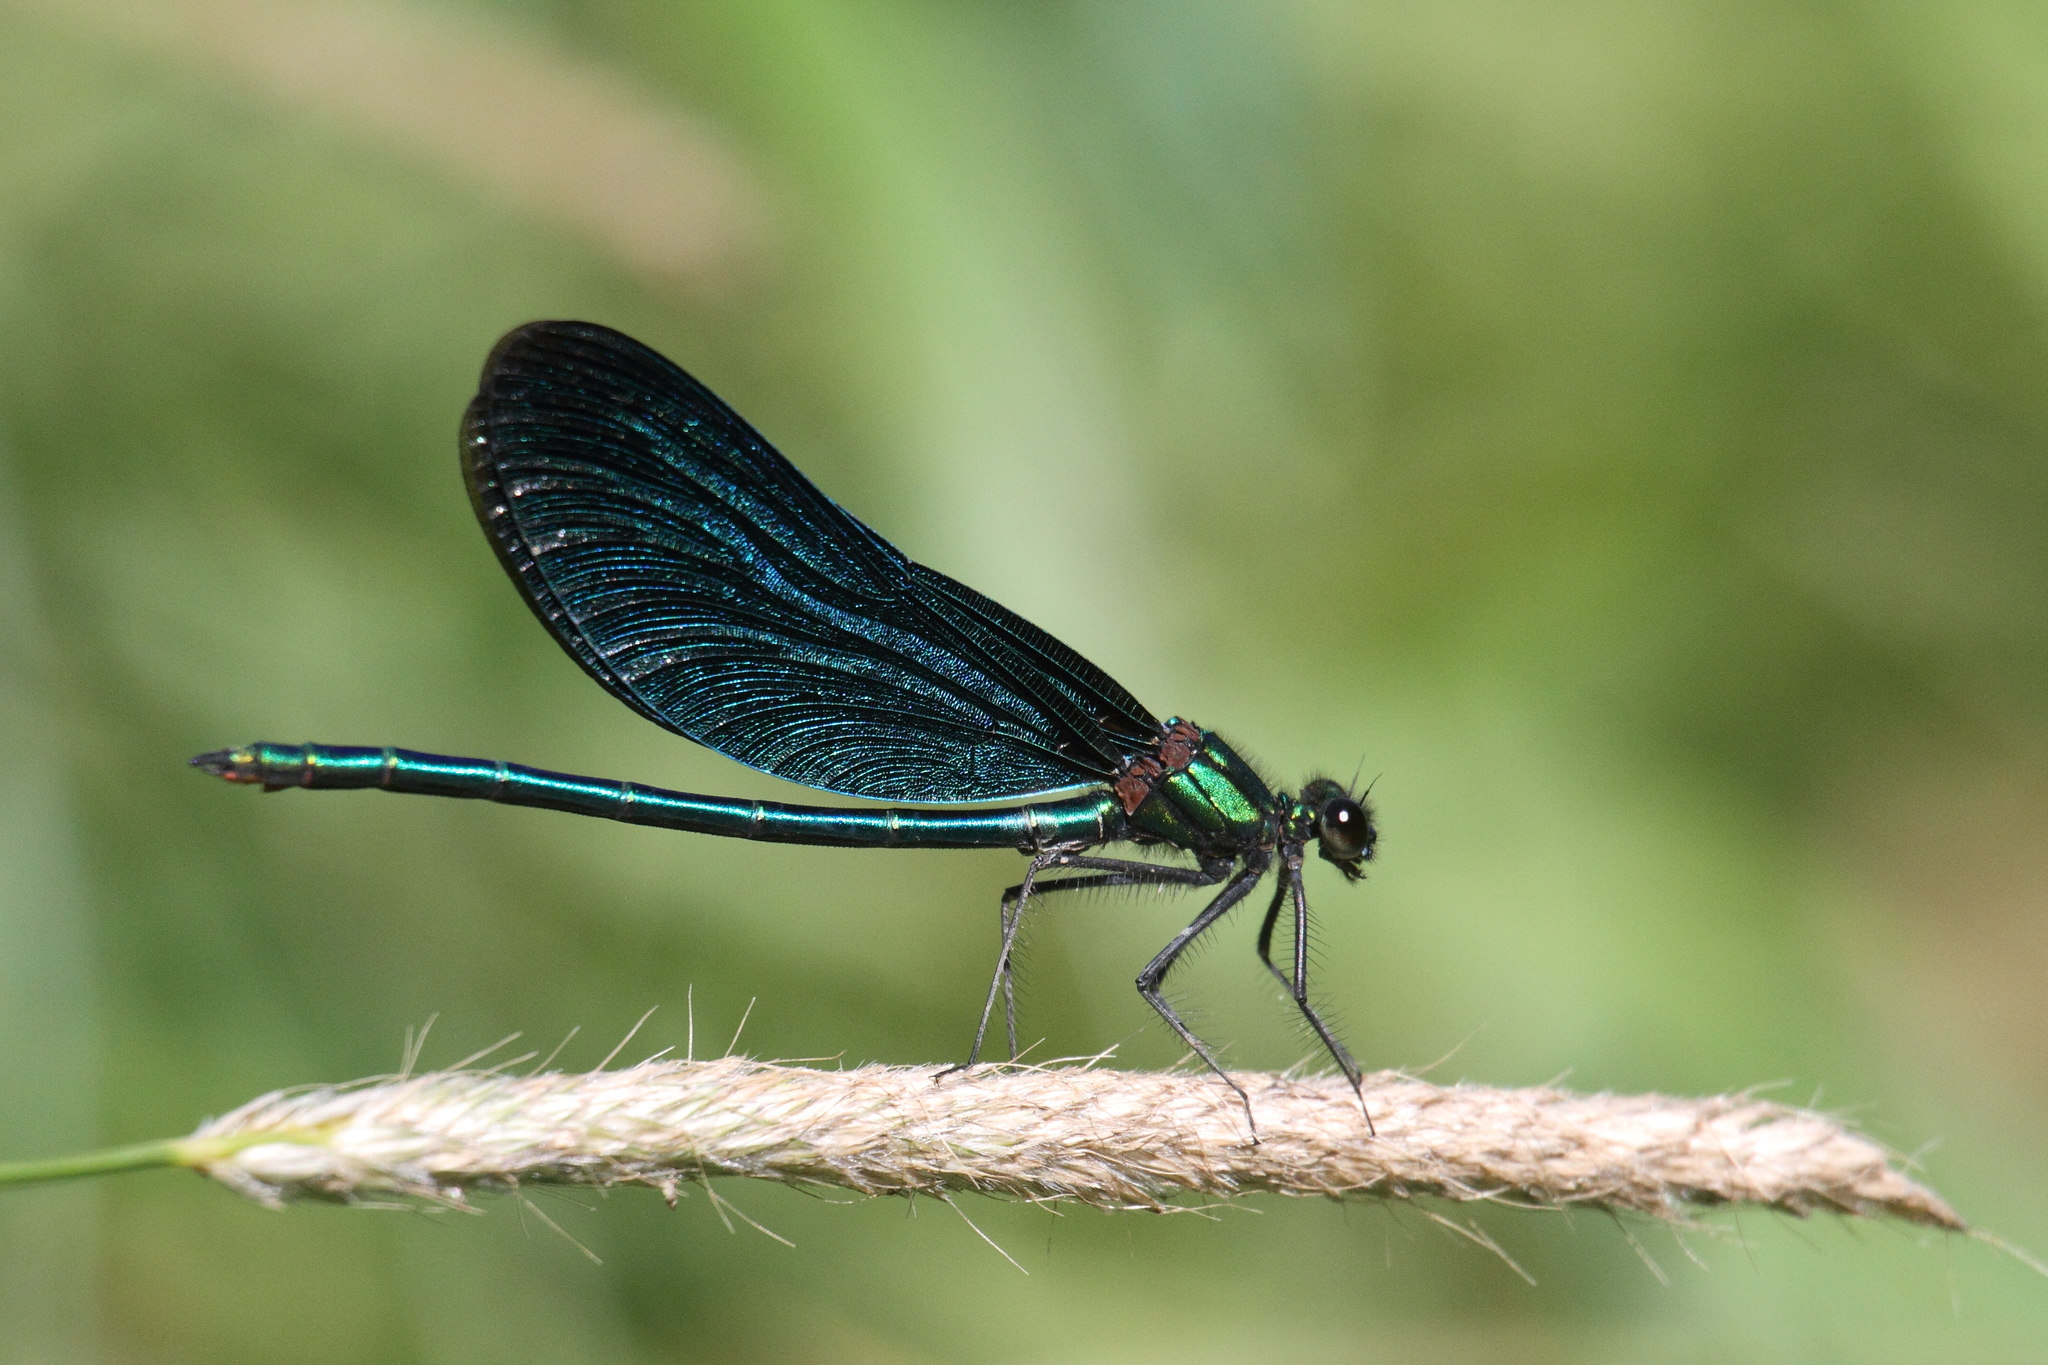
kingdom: Animalia
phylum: Arthropoda
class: Insecta
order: Odonata
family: Calopterygidae
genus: Calopteryx
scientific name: Calopteryx virgo
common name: Beautiful demoiselle
